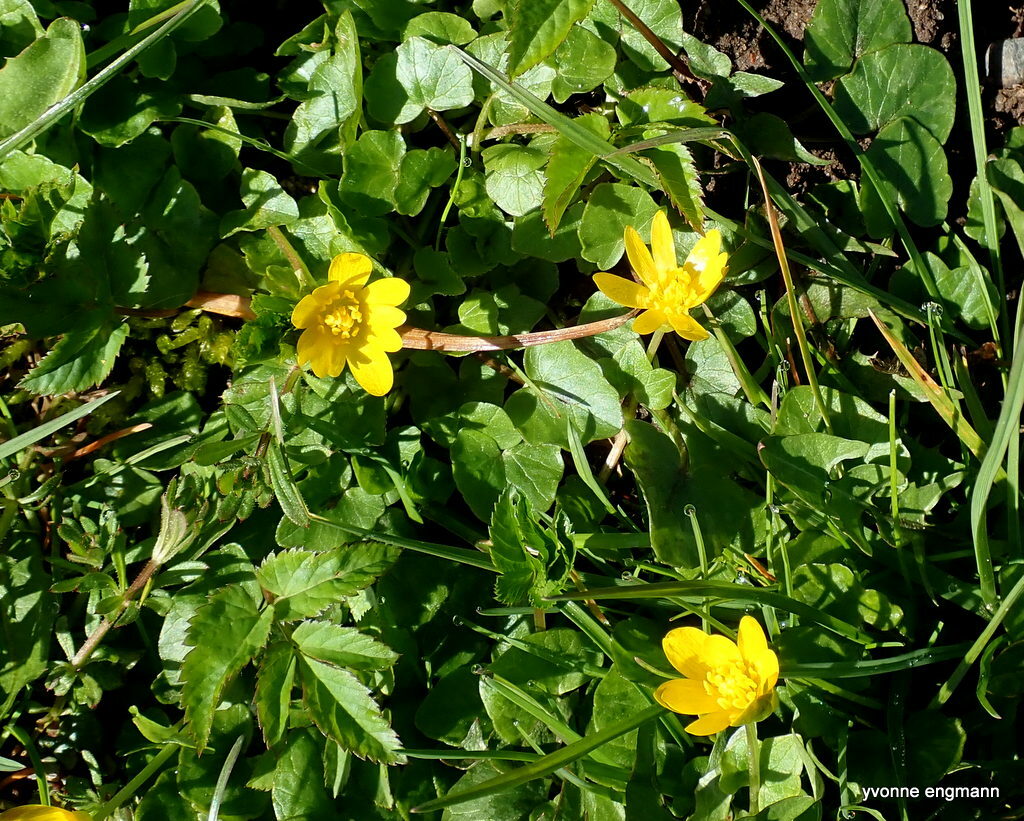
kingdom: Plantae
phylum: Tracheophyta
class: Magnoliopsida
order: Ranunculales
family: Ranunculaceae
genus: Ficaria
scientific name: Ficaria verna
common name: Lesser celandine
